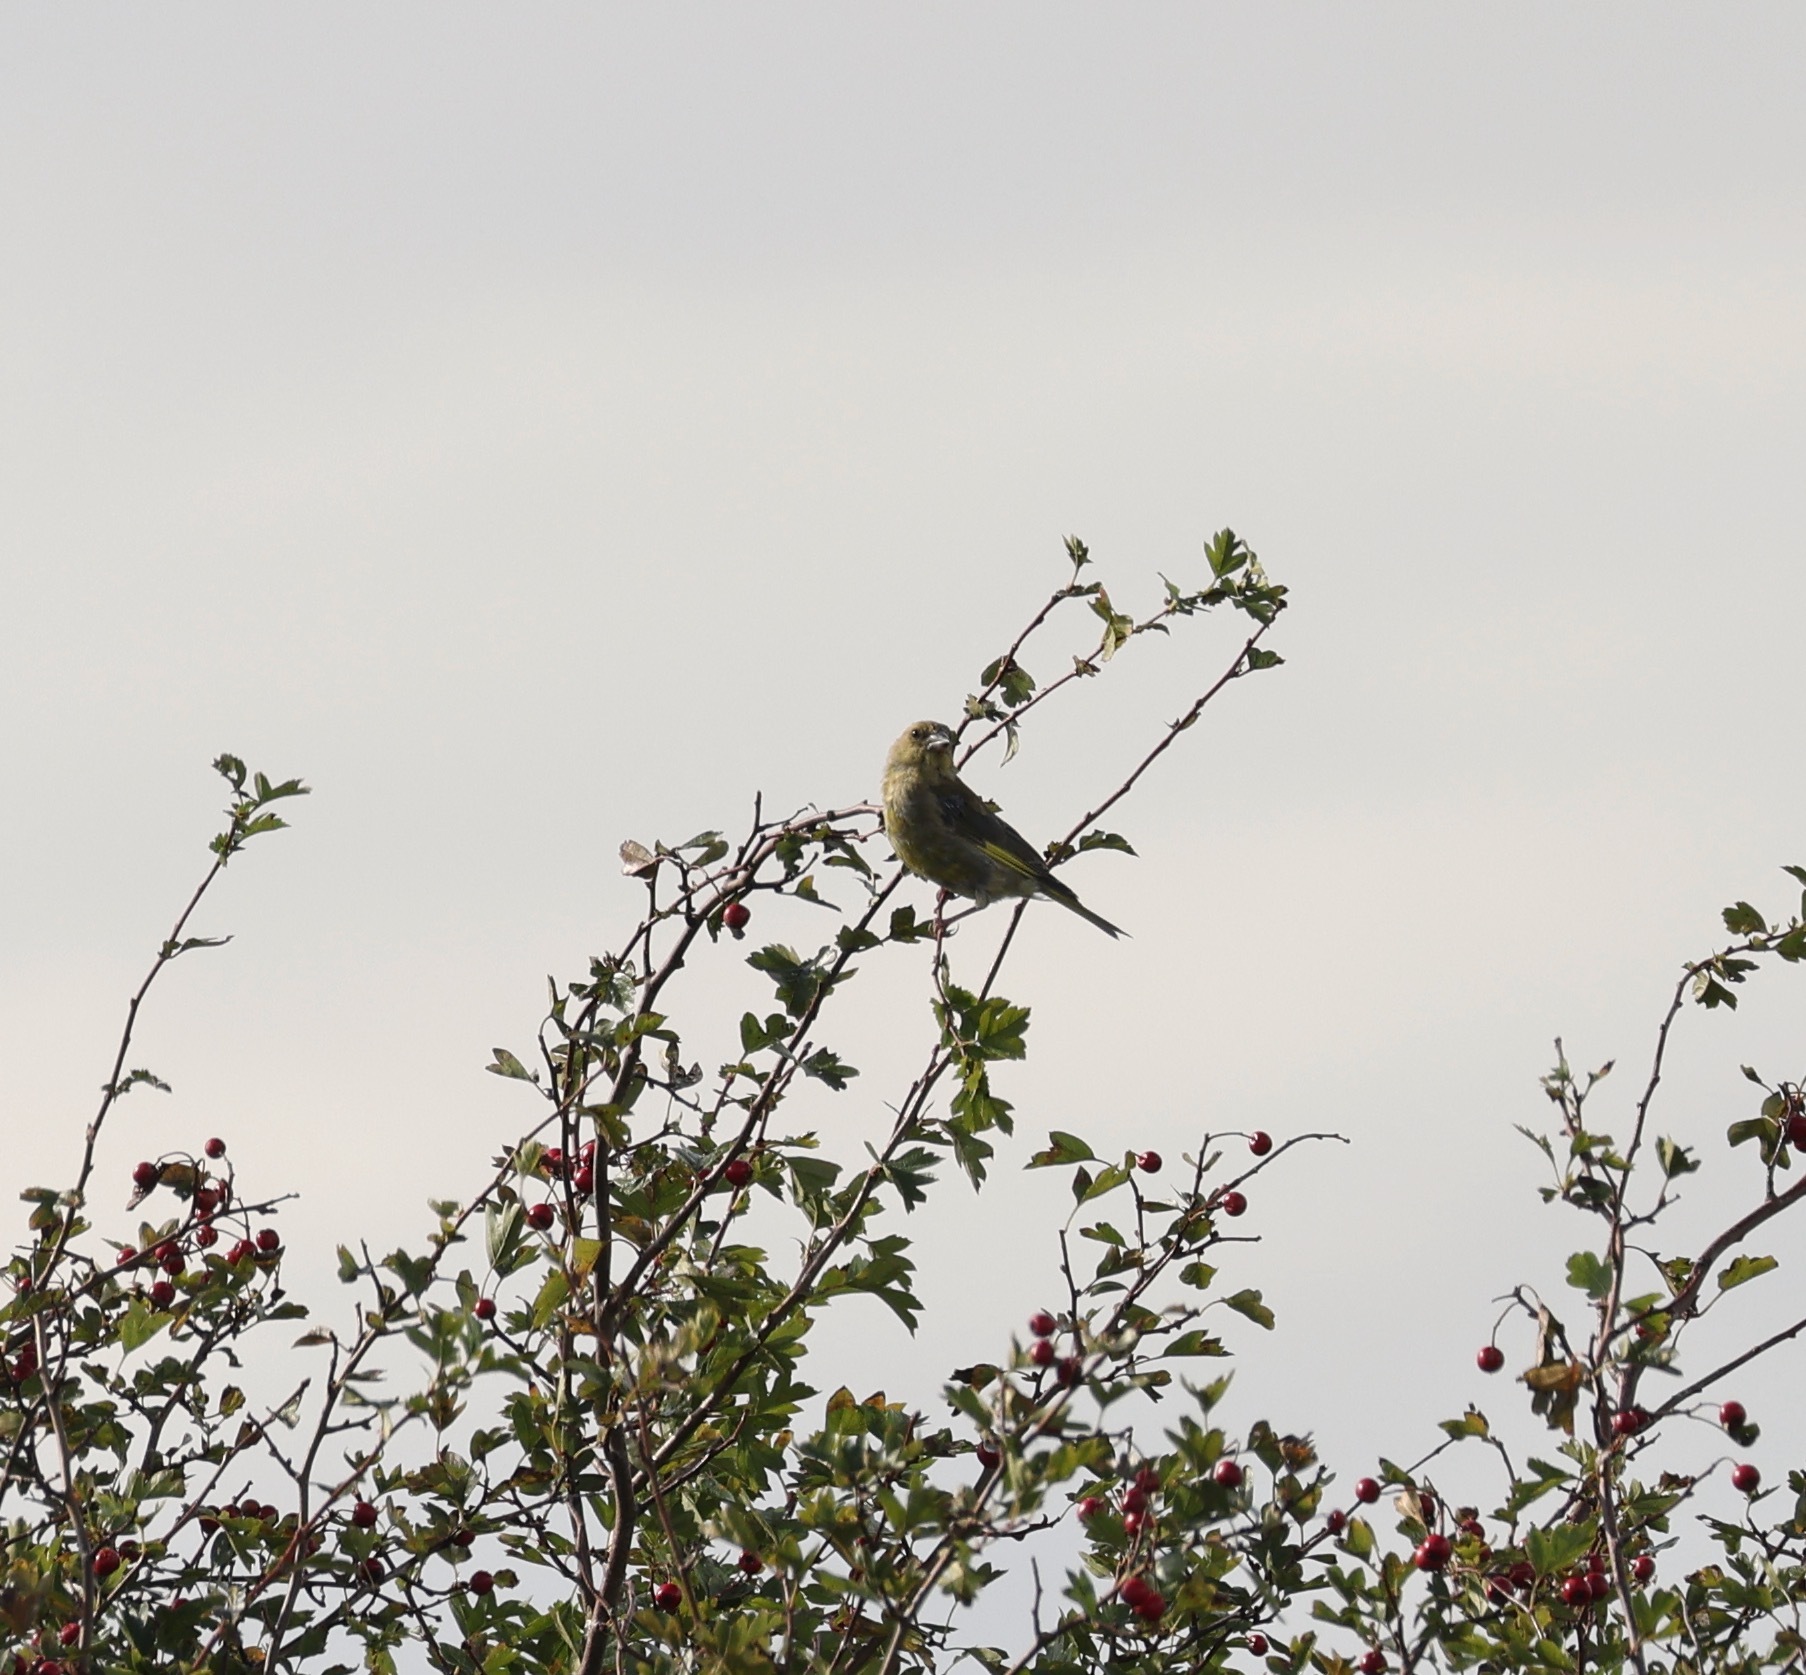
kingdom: Plantae
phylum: Tracheophyta
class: Liliopsida
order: Poales
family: Poaceae
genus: Chloris
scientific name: Chloris chloris
